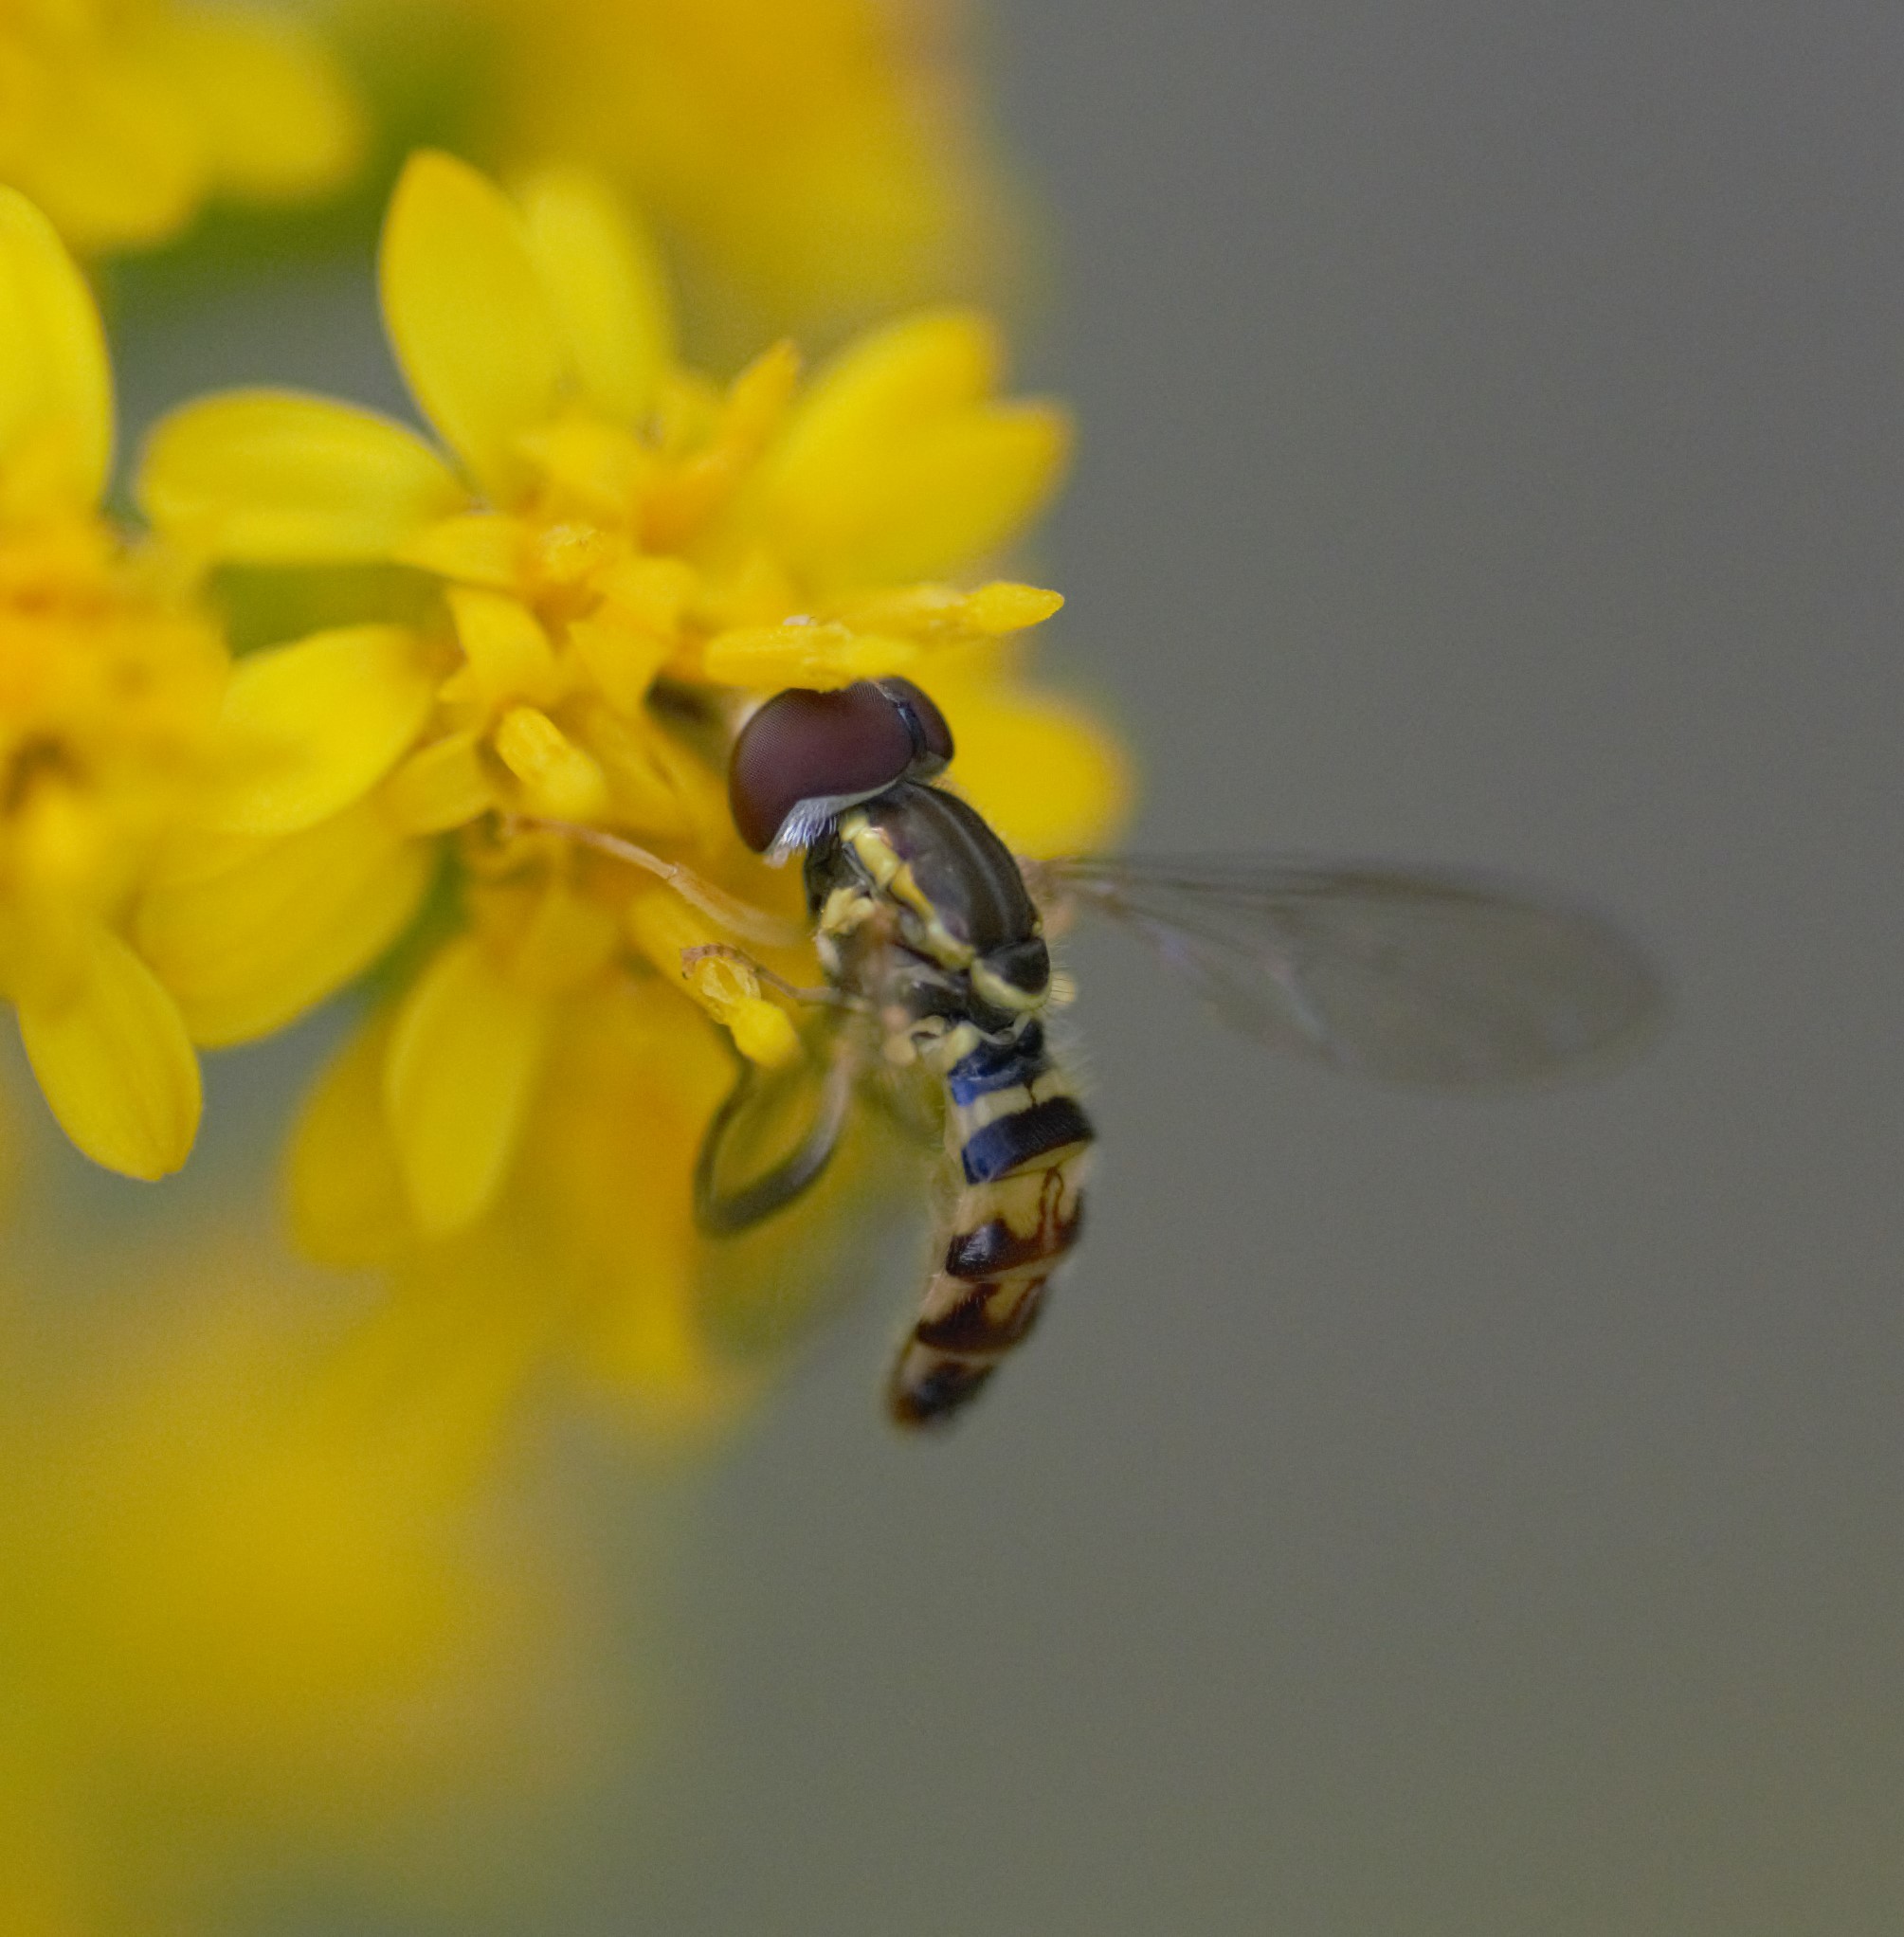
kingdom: Animalia
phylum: Arthropoda
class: Insecta
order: Diptera
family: Syrphidae
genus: Toxomerus
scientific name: Toxomerus geminatus
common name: Eastern calligrapher
